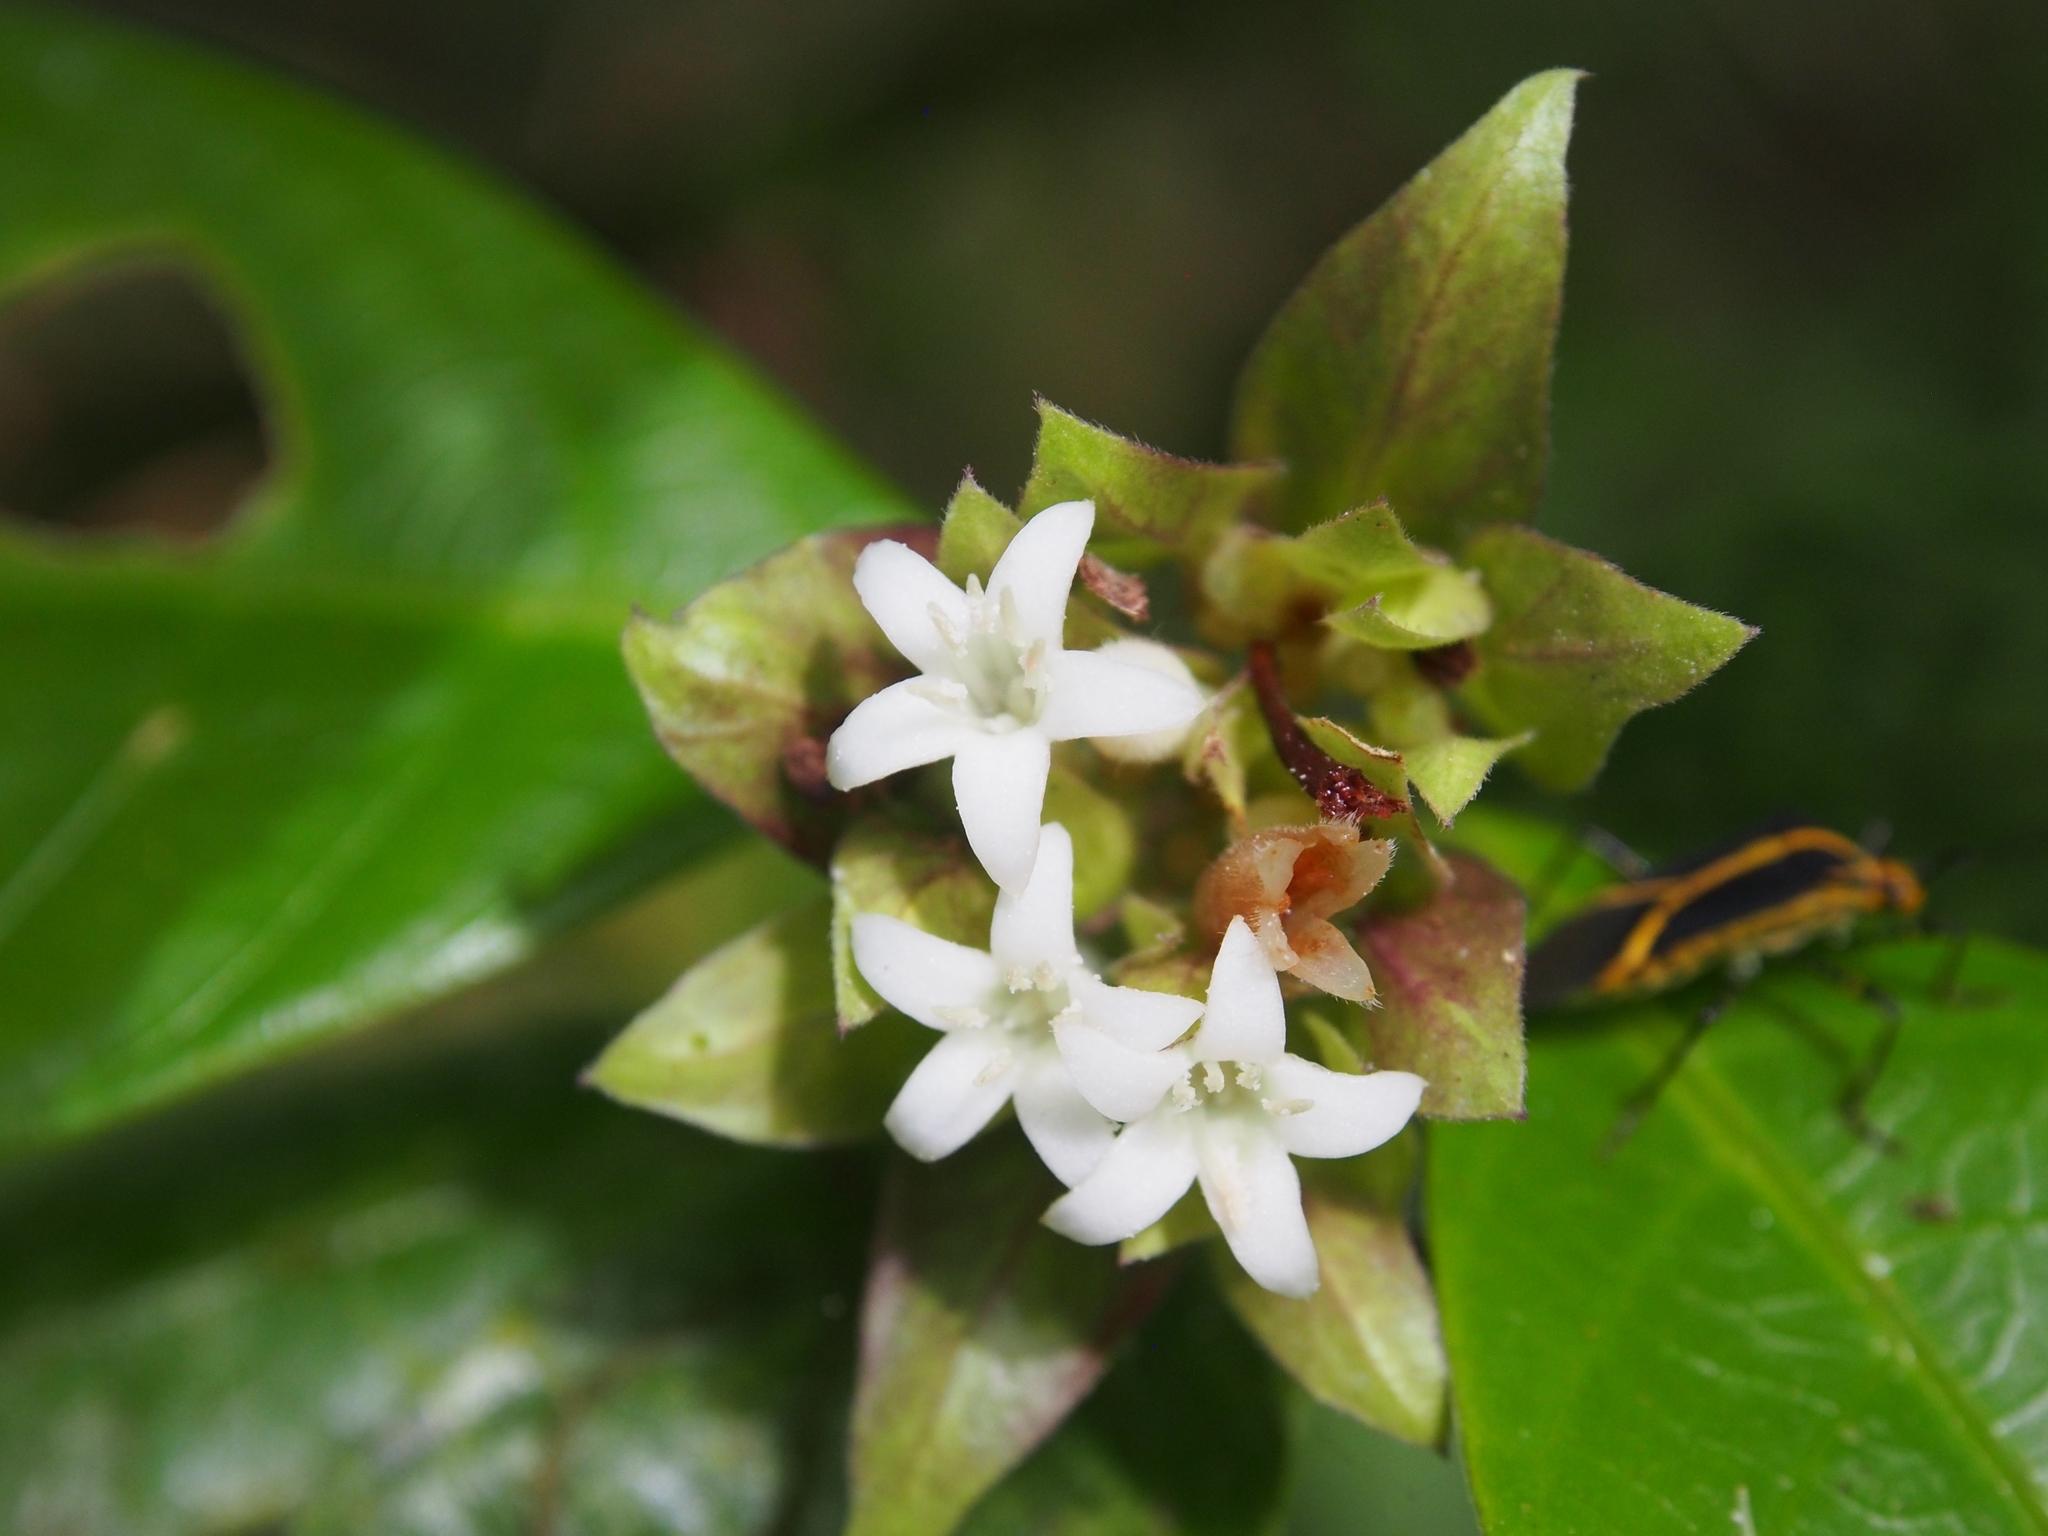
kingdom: Plantae
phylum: Tracheophyta
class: Magnoliopsida
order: Gentianales
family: Rubiaceae
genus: Palicourea
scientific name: Palicourea suerrensis
